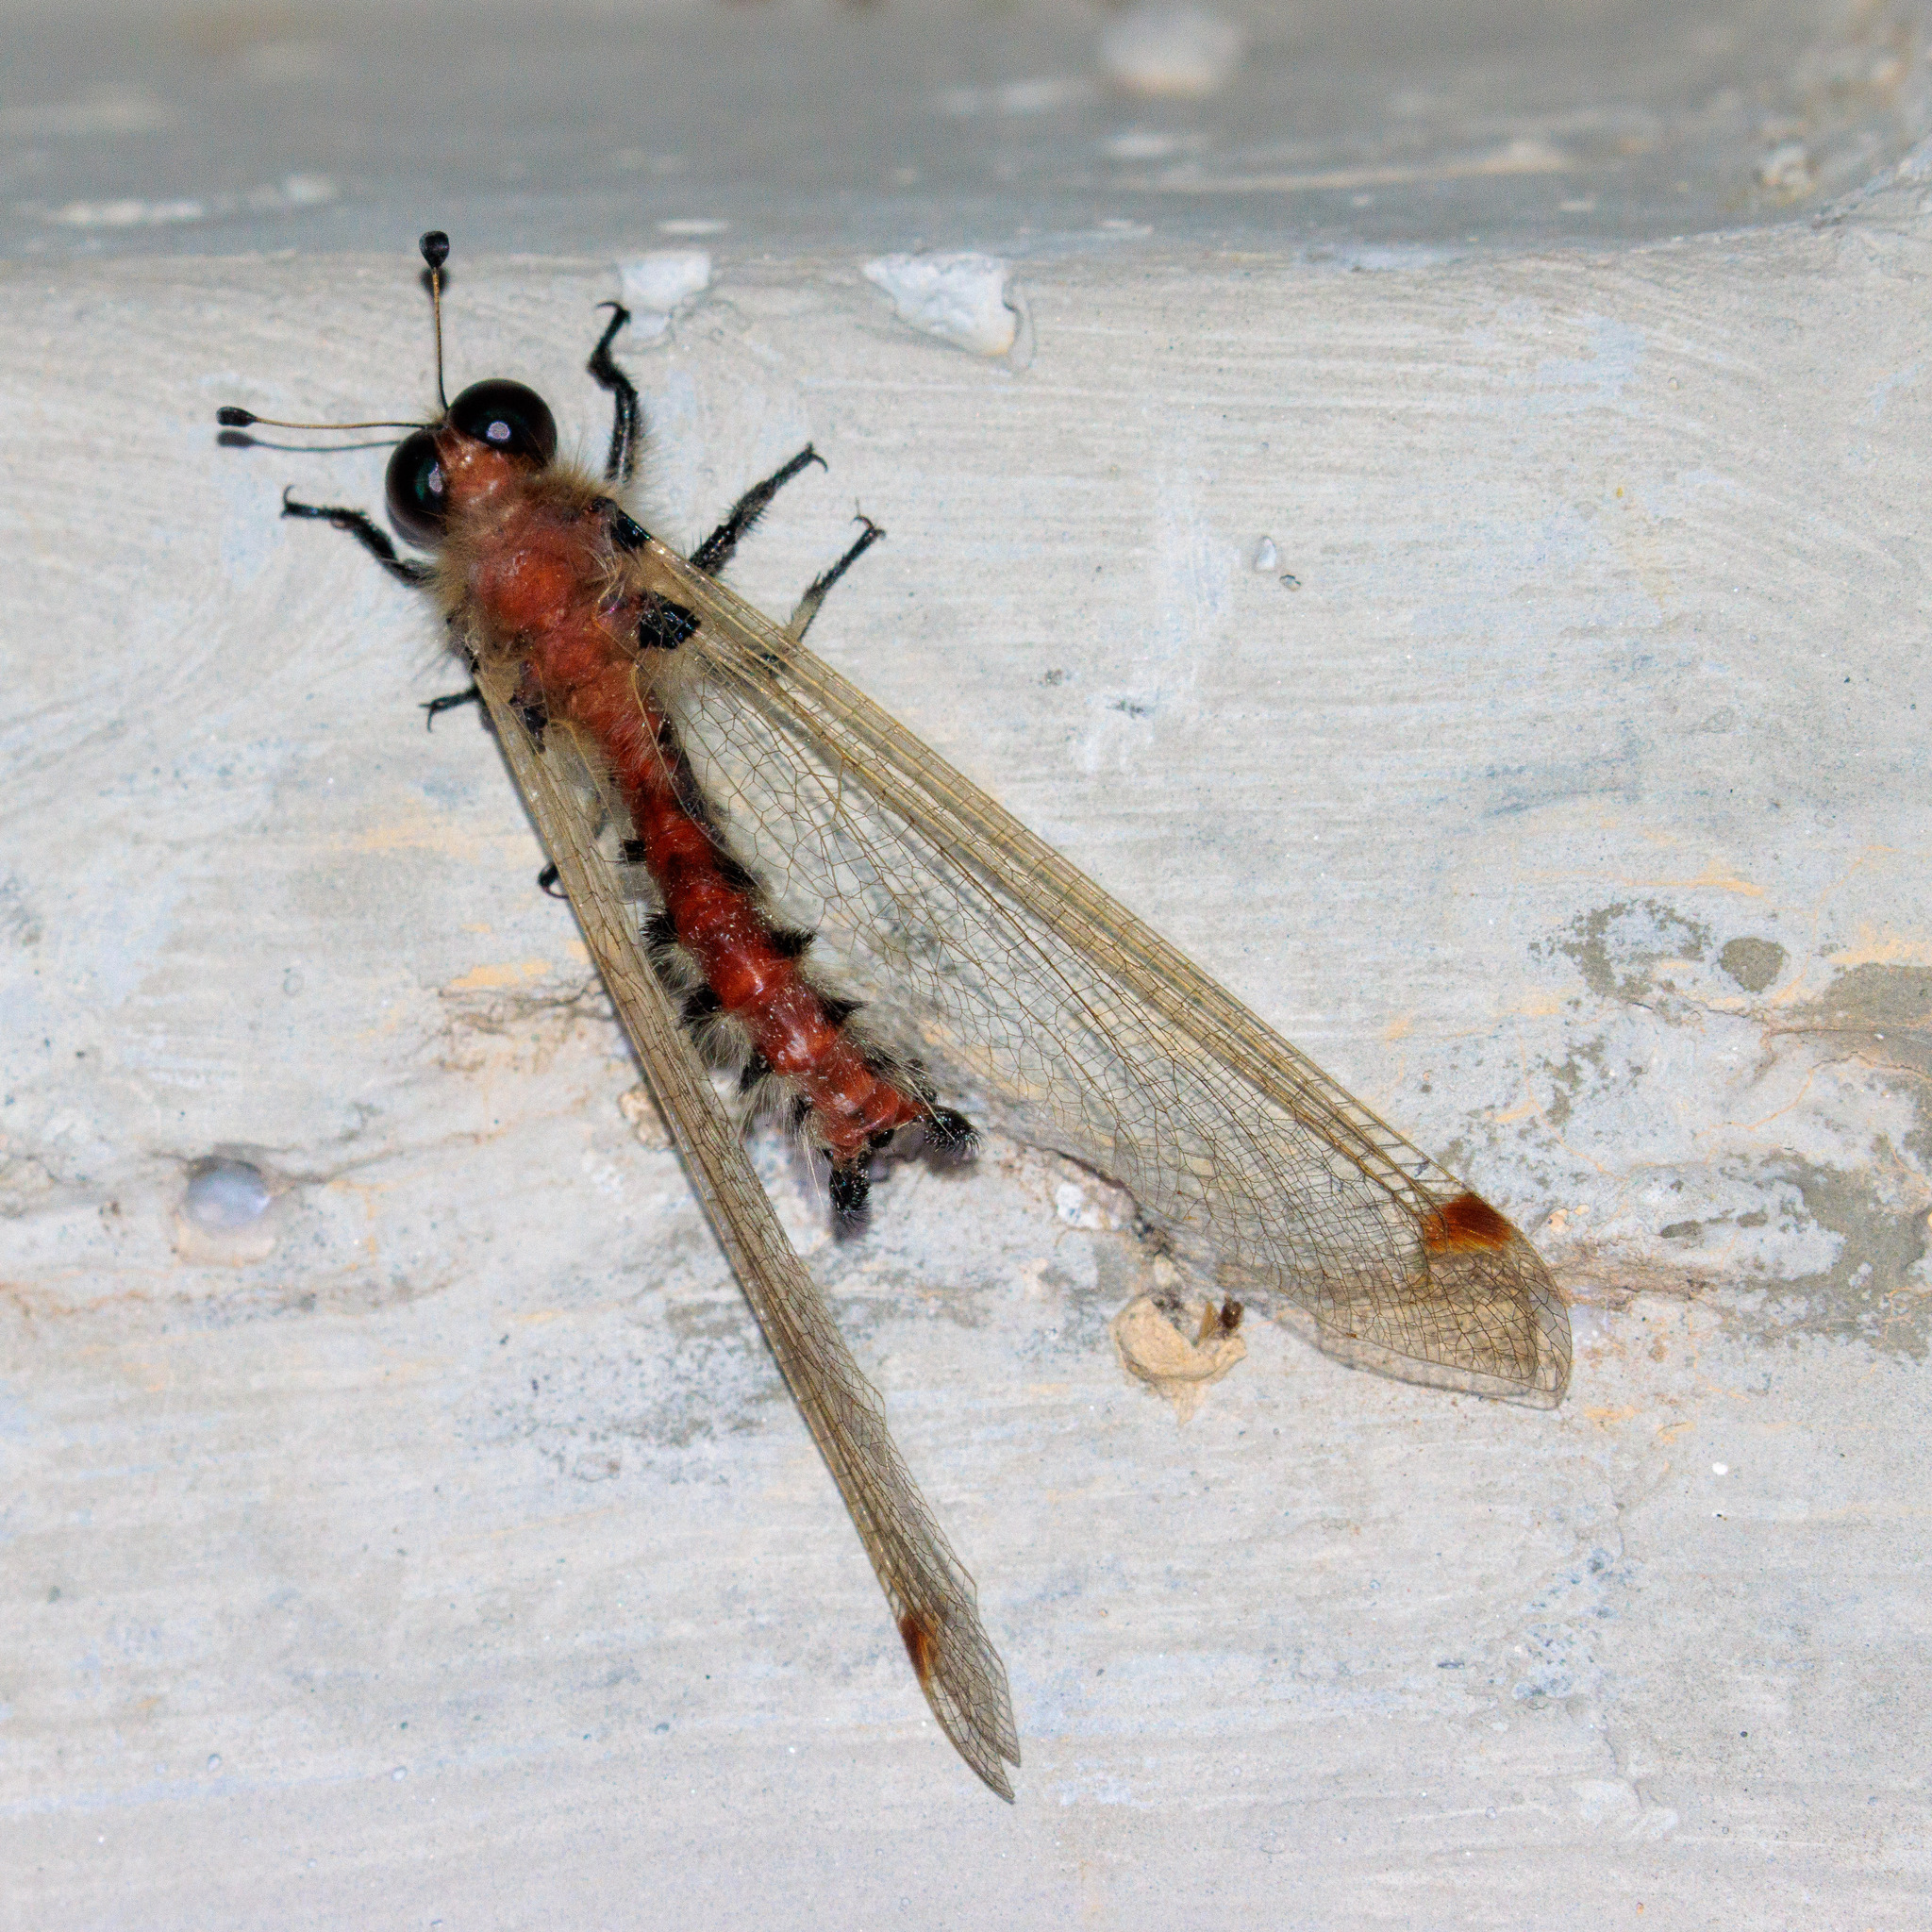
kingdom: Animalia
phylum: Arthropoda
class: Insecta
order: Neuroptera
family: Ascalaphidae
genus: Albardia
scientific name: Albardia furcata
